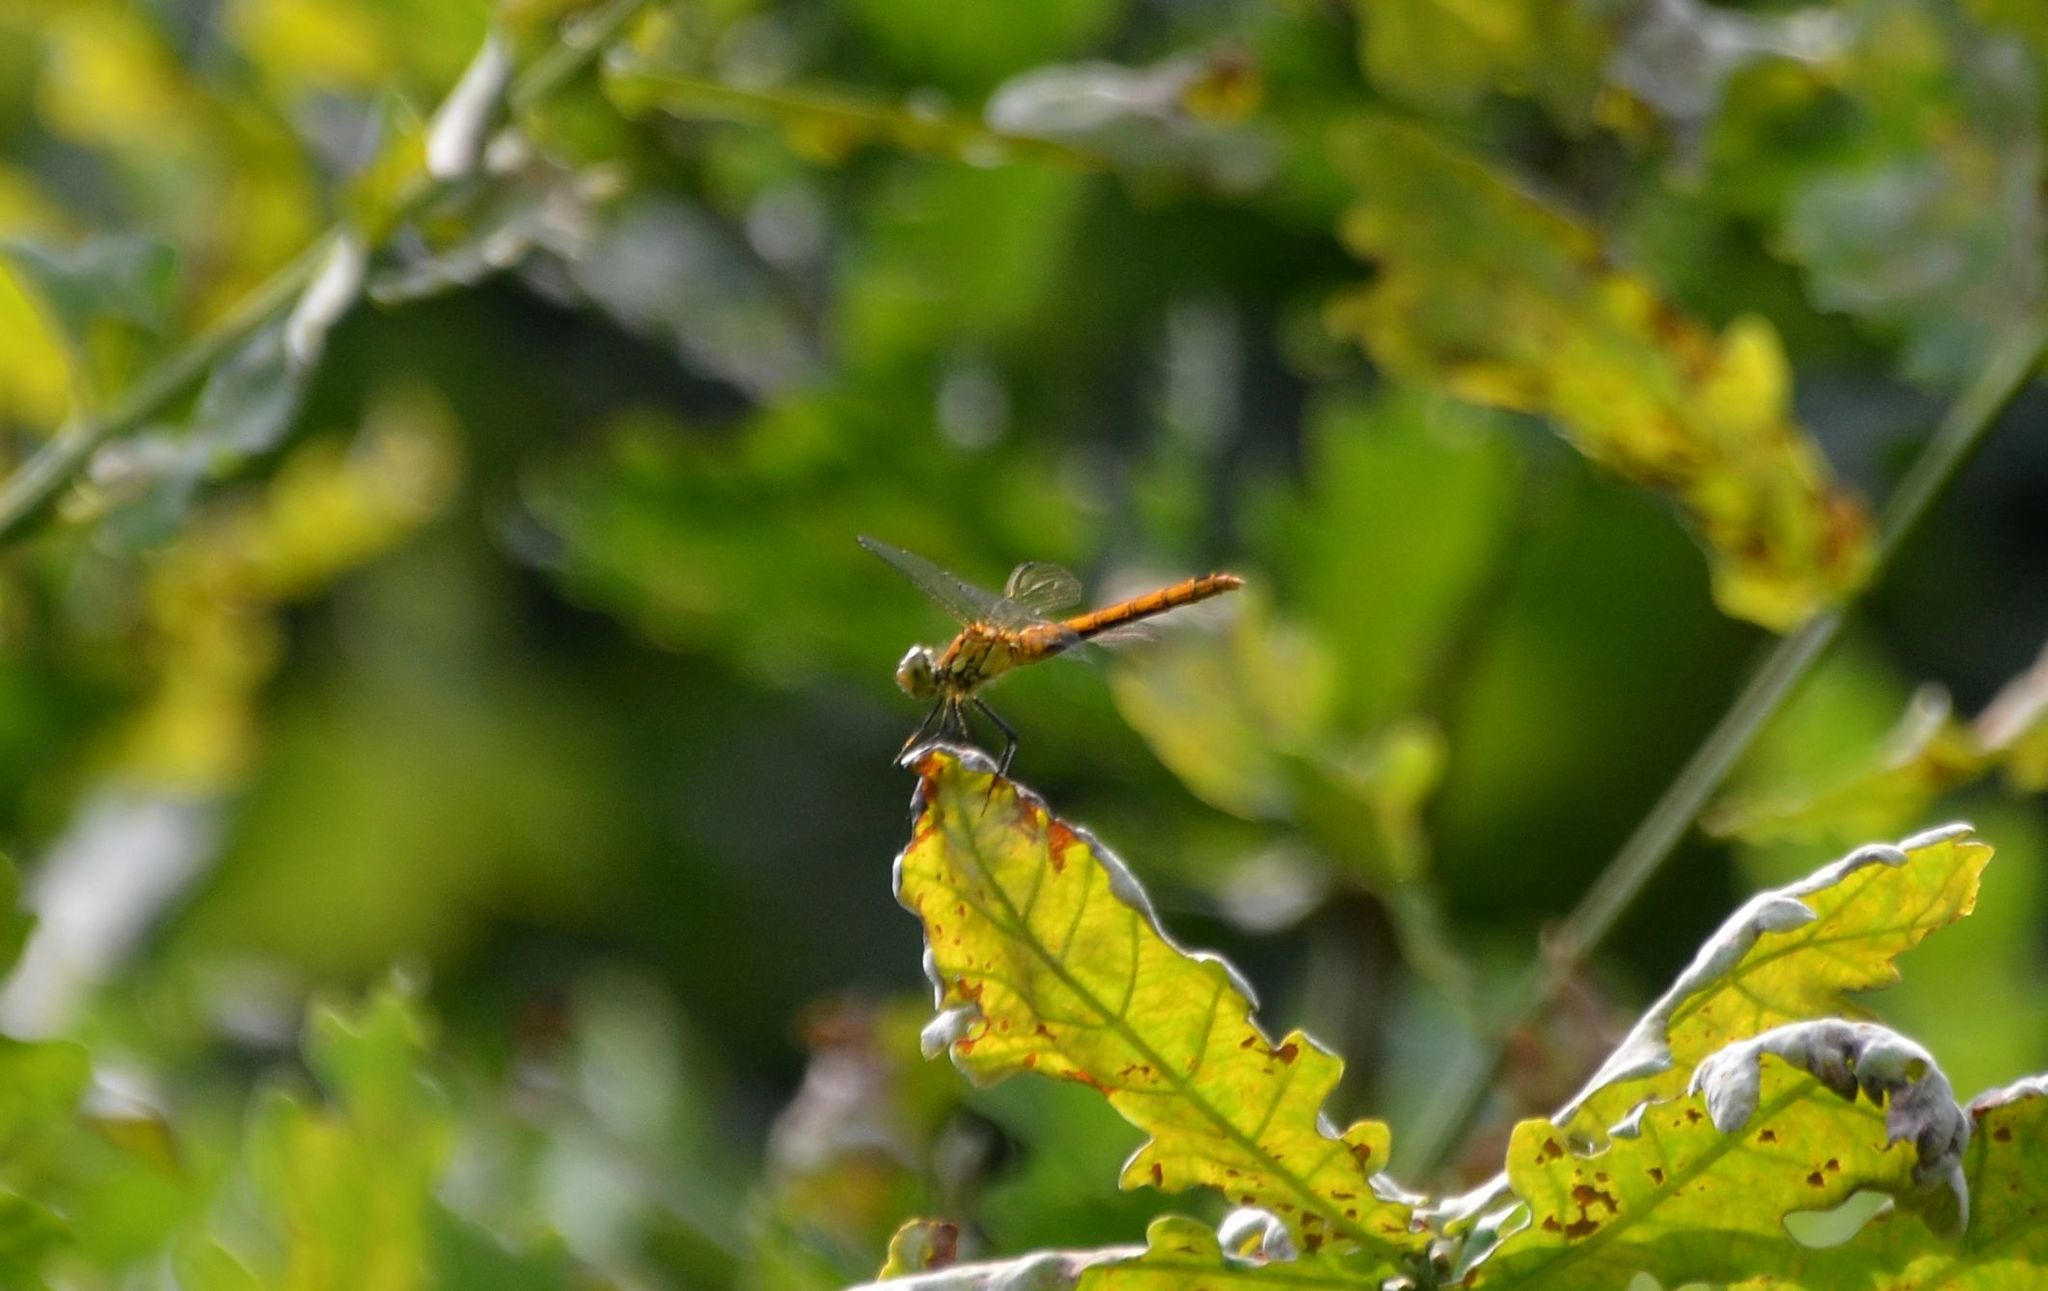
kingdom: Animalia
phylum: Arthropoda
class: Insecta
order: Odonata
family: Libellulidae
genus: Sympetrum
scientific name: Sympetrum sanguineum
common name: Ruddy darter
